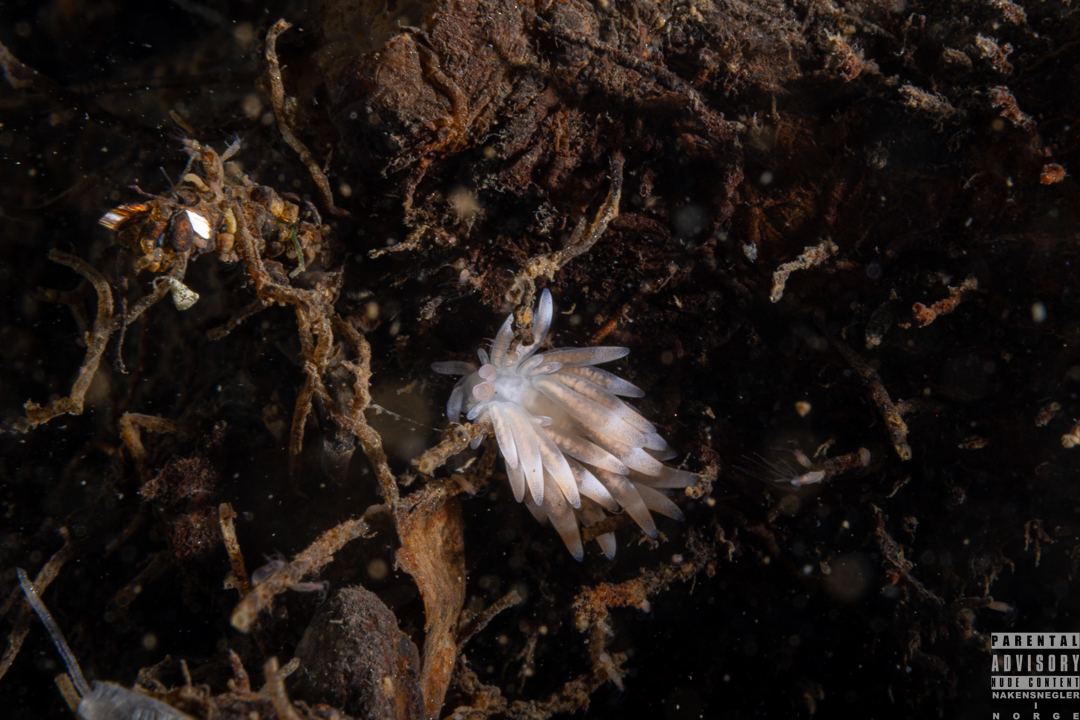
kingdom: Animalia
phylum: Mollusca
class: Gastropoda
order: Nudibranchia
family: Trinchesiidae
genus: Catriona
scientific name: Catriona aurantia
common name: Corange-tip cuthona
